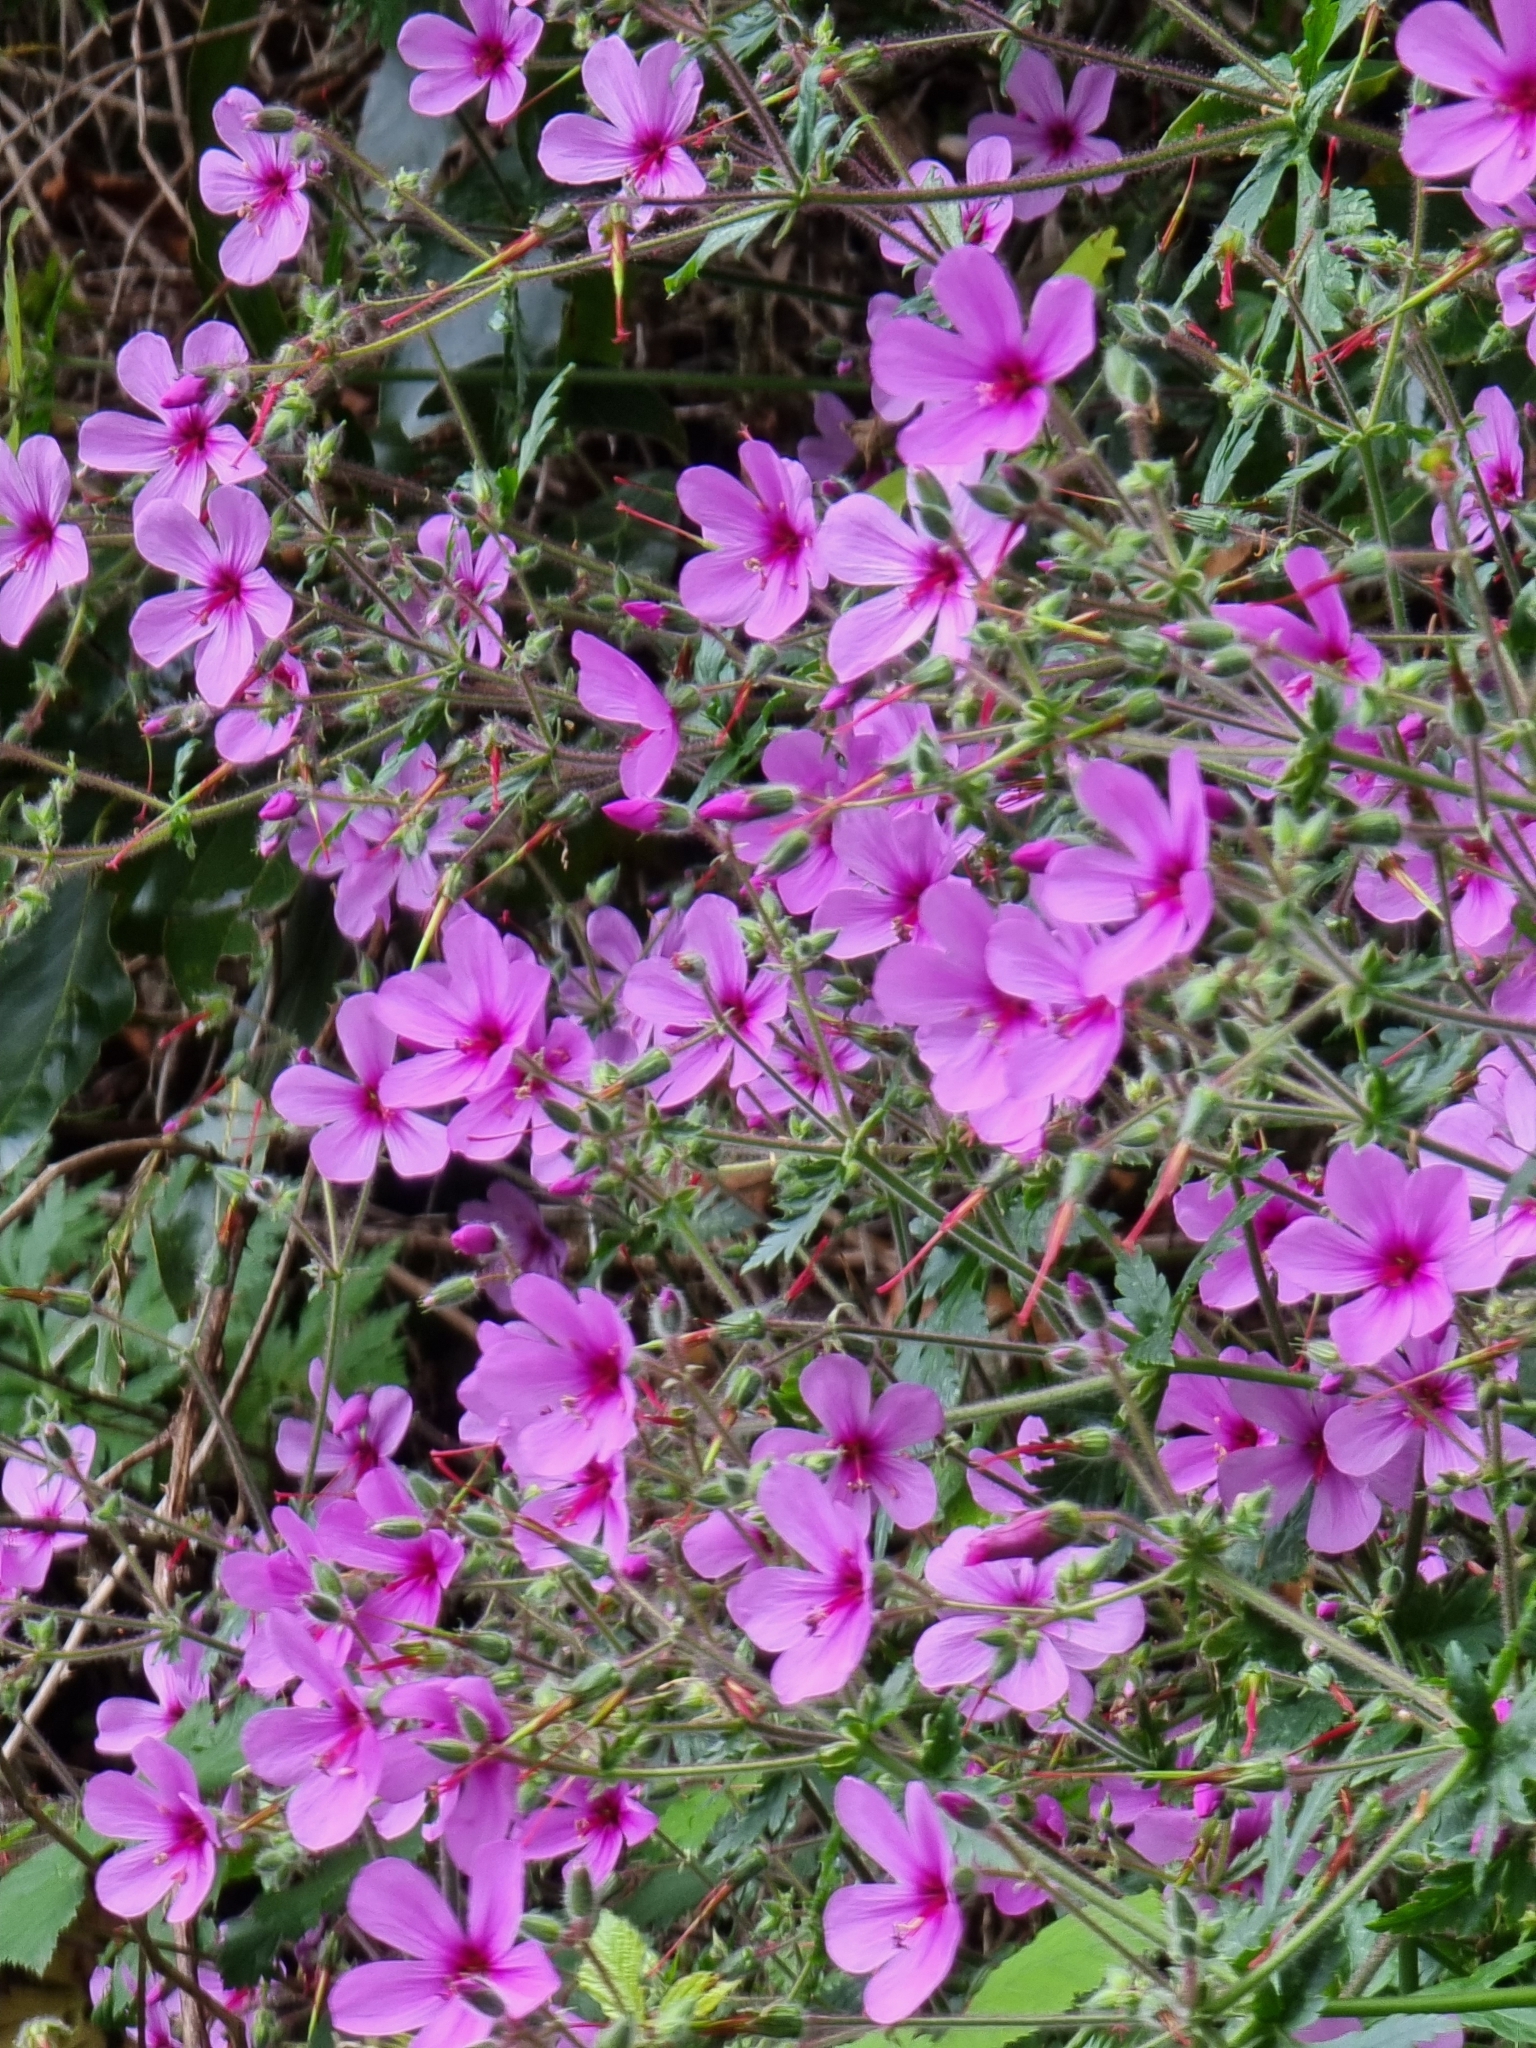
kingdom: Plantae
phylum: Tracheophyta
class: Magnoliopsida
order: Geraniales
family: Geraniaceae
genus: Geranium
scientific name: Geranium palmatum
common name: Canary island geranium
